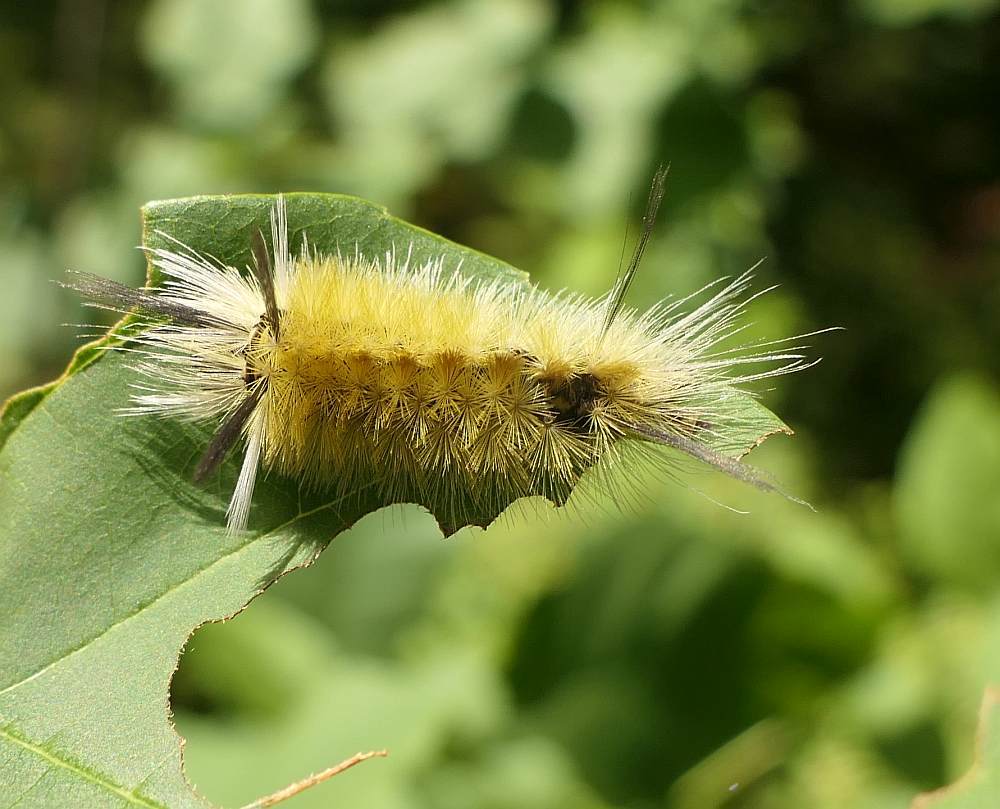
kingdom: Animalia
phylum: Arthropoda
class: Insecta
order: Lepidoptera
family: Erebidae
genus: Halysidota
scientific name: Halysidota tessellaris
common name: Banded tussock moth
